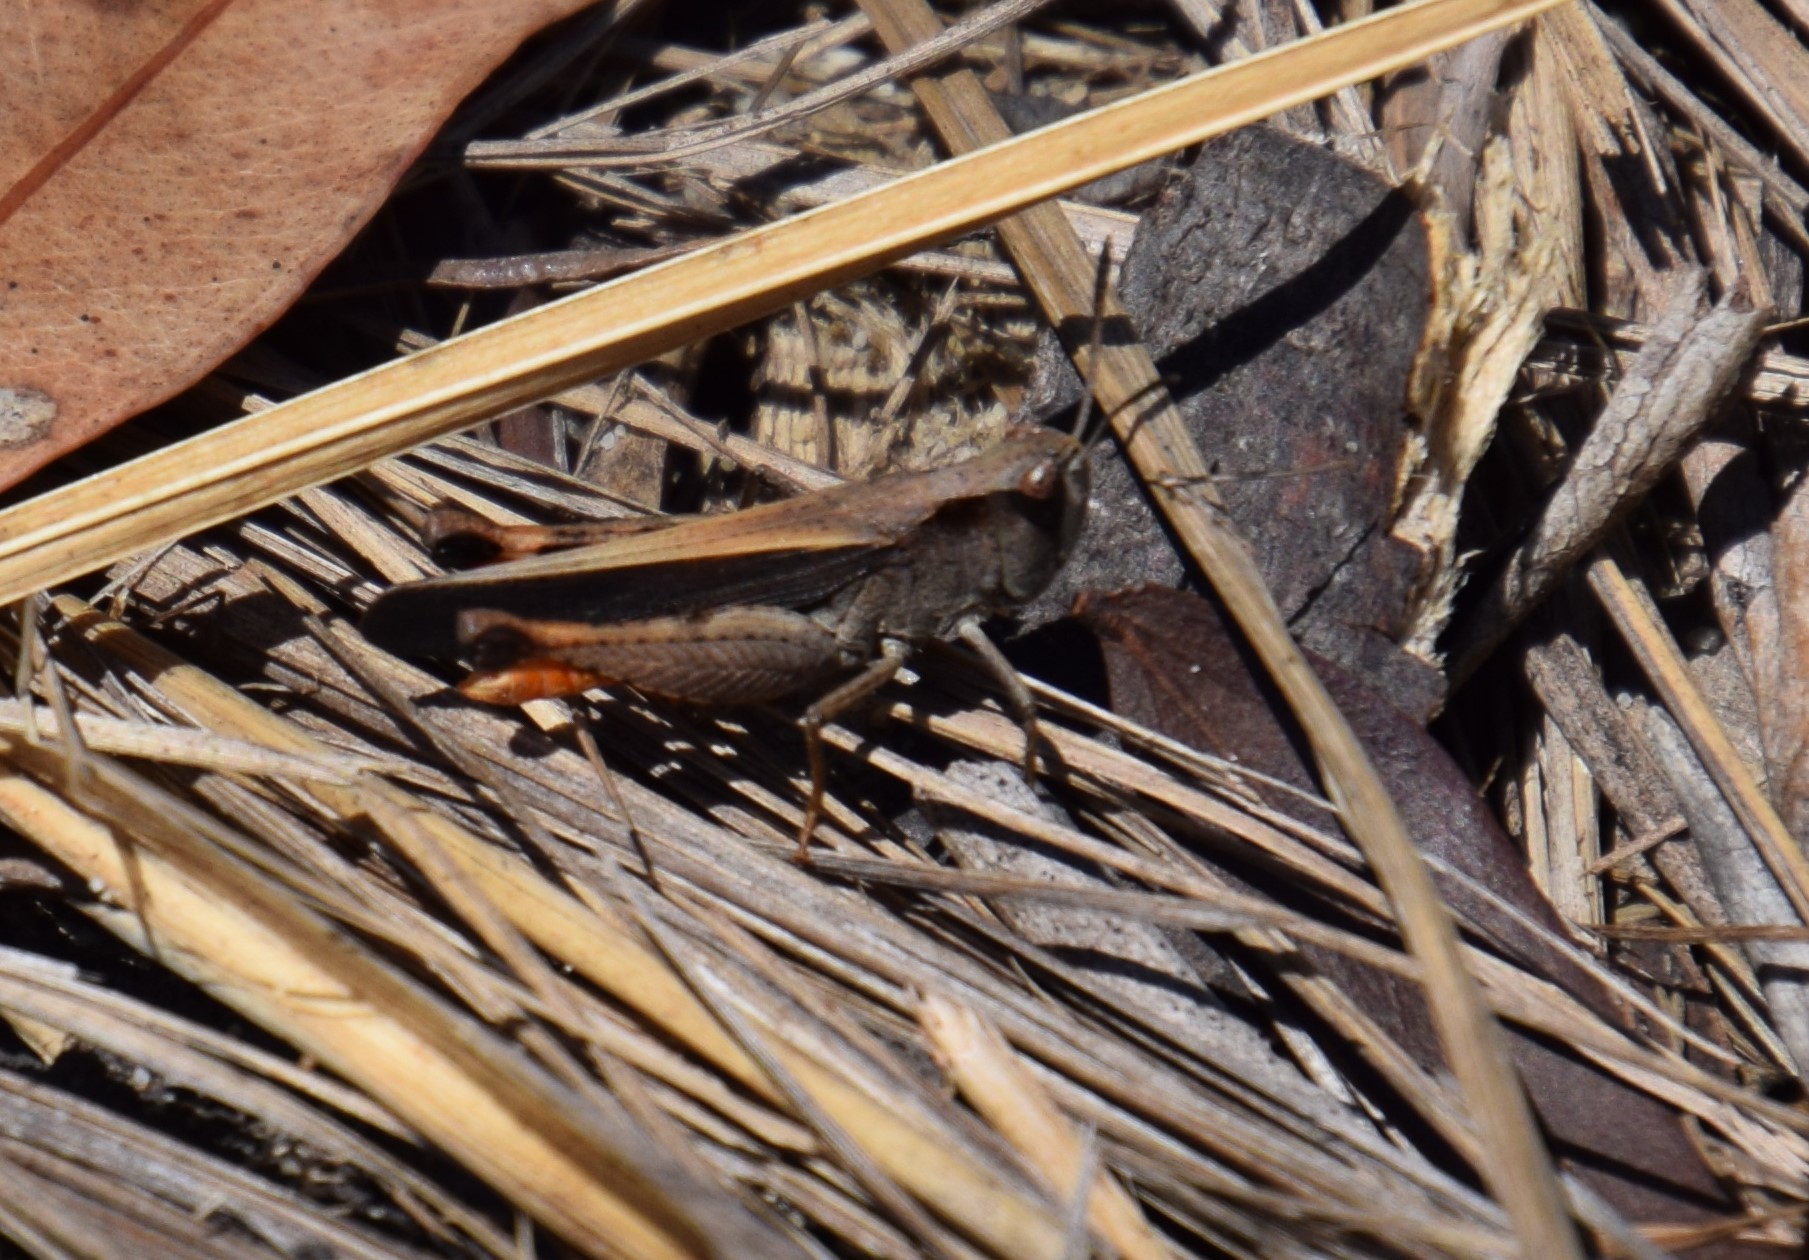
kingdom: Animalia
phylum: Arthropoda
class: Insecta
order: Orthoptera
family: Acrididae
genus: Cryptobothrus
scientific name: Cryptobothrus chrysophorus
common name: Golden bandwing
